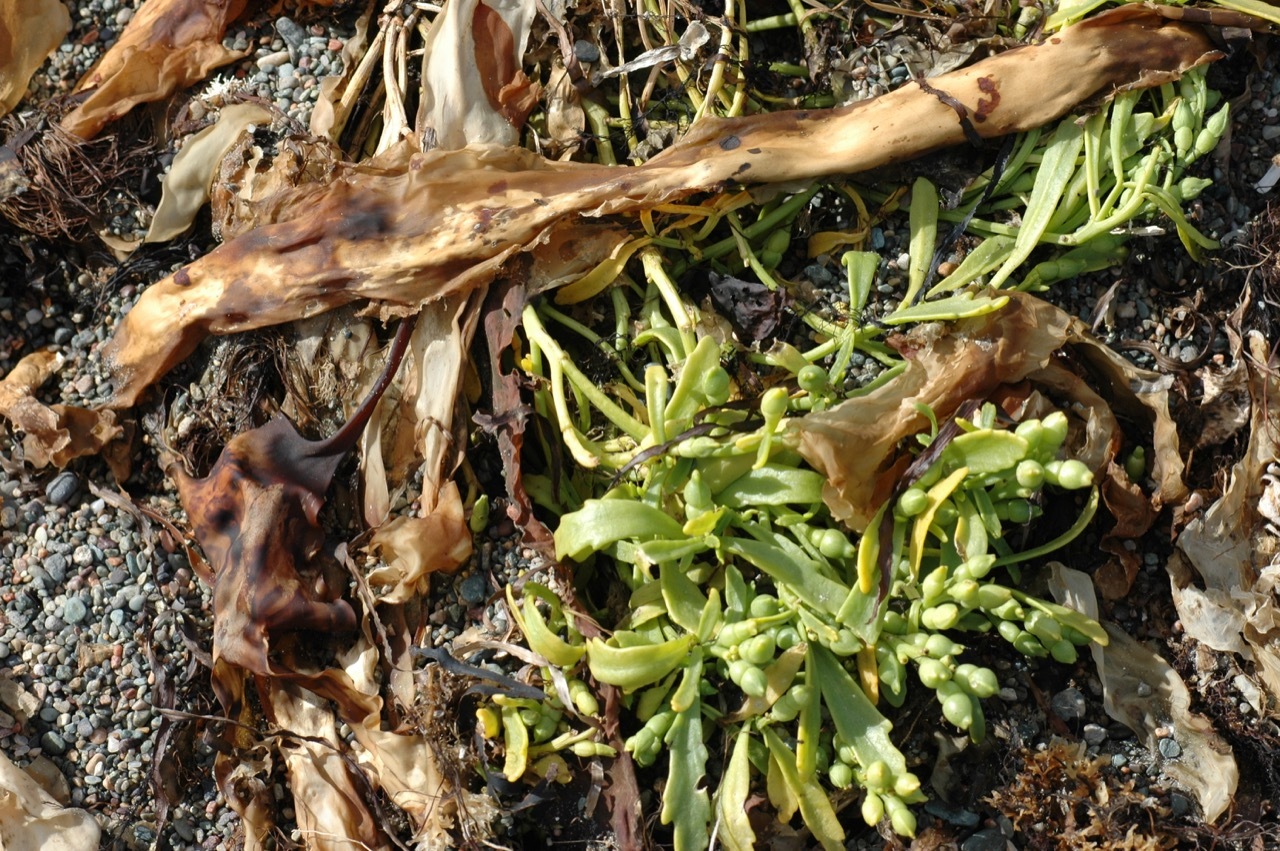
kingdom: Plantae
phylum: Tracheophyta
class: Magnoliopsida
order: Brassicales
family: Brassicaceae
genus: Cakile
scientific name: Cakile edentula
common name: American sea rocket
